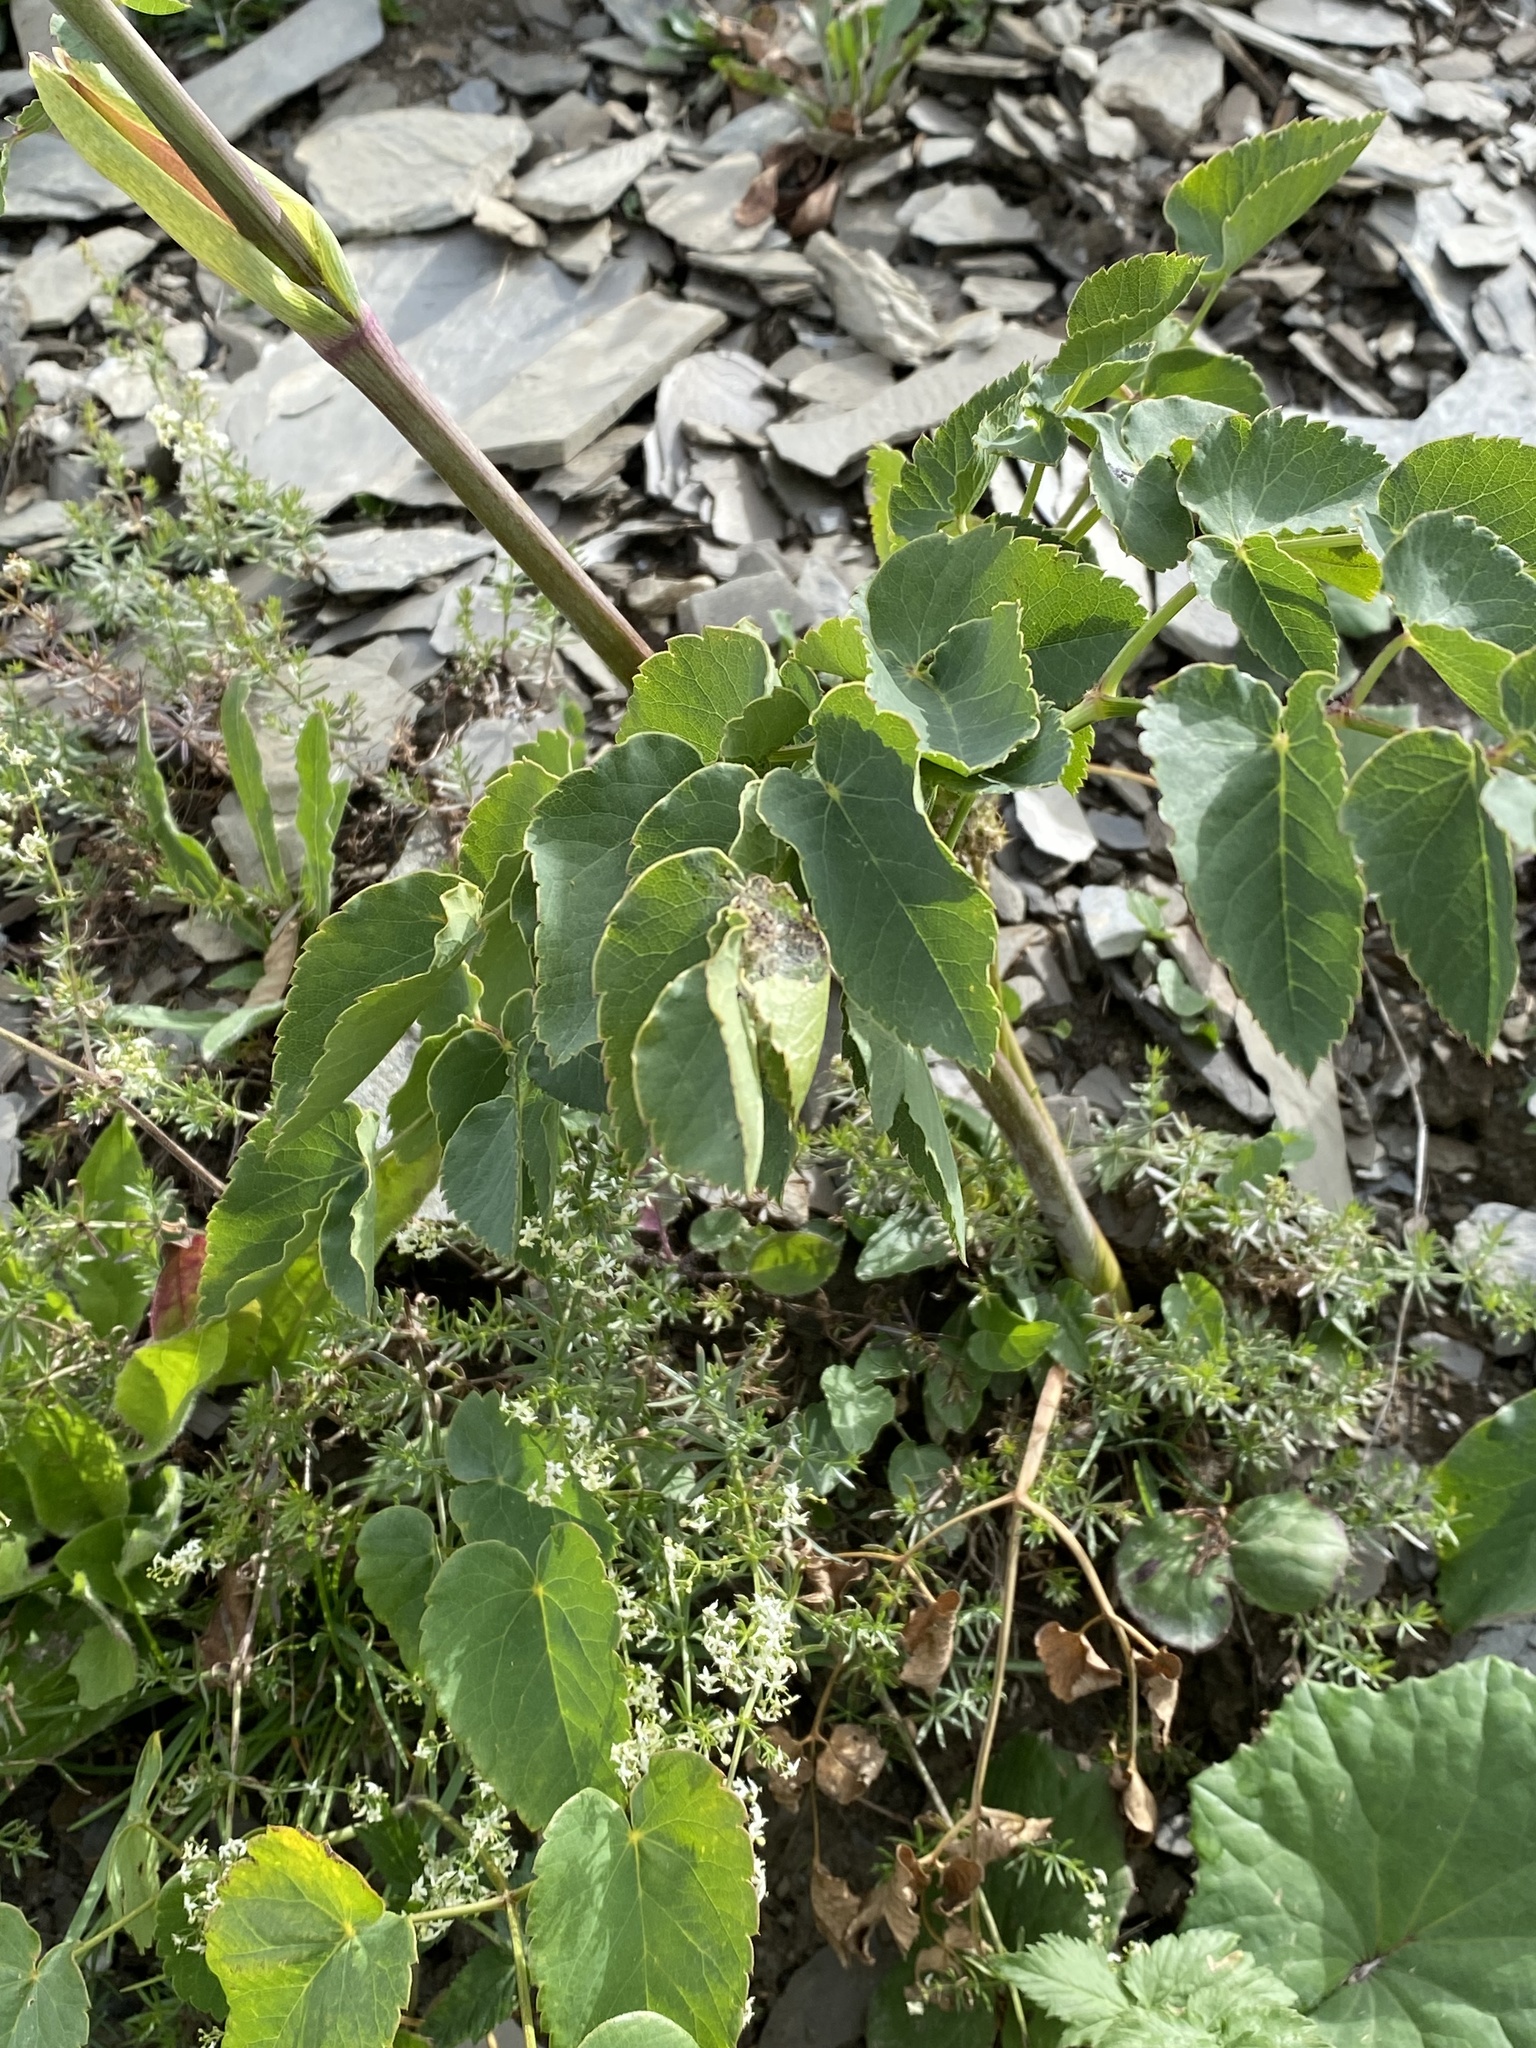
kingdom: Plantae
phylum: Tracheophyta
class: Magnoliopsida
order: Apiales
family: Apiaceae
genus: Laserpitium
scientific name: Laserpitium latifolium
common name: Broadleaf sermountain
